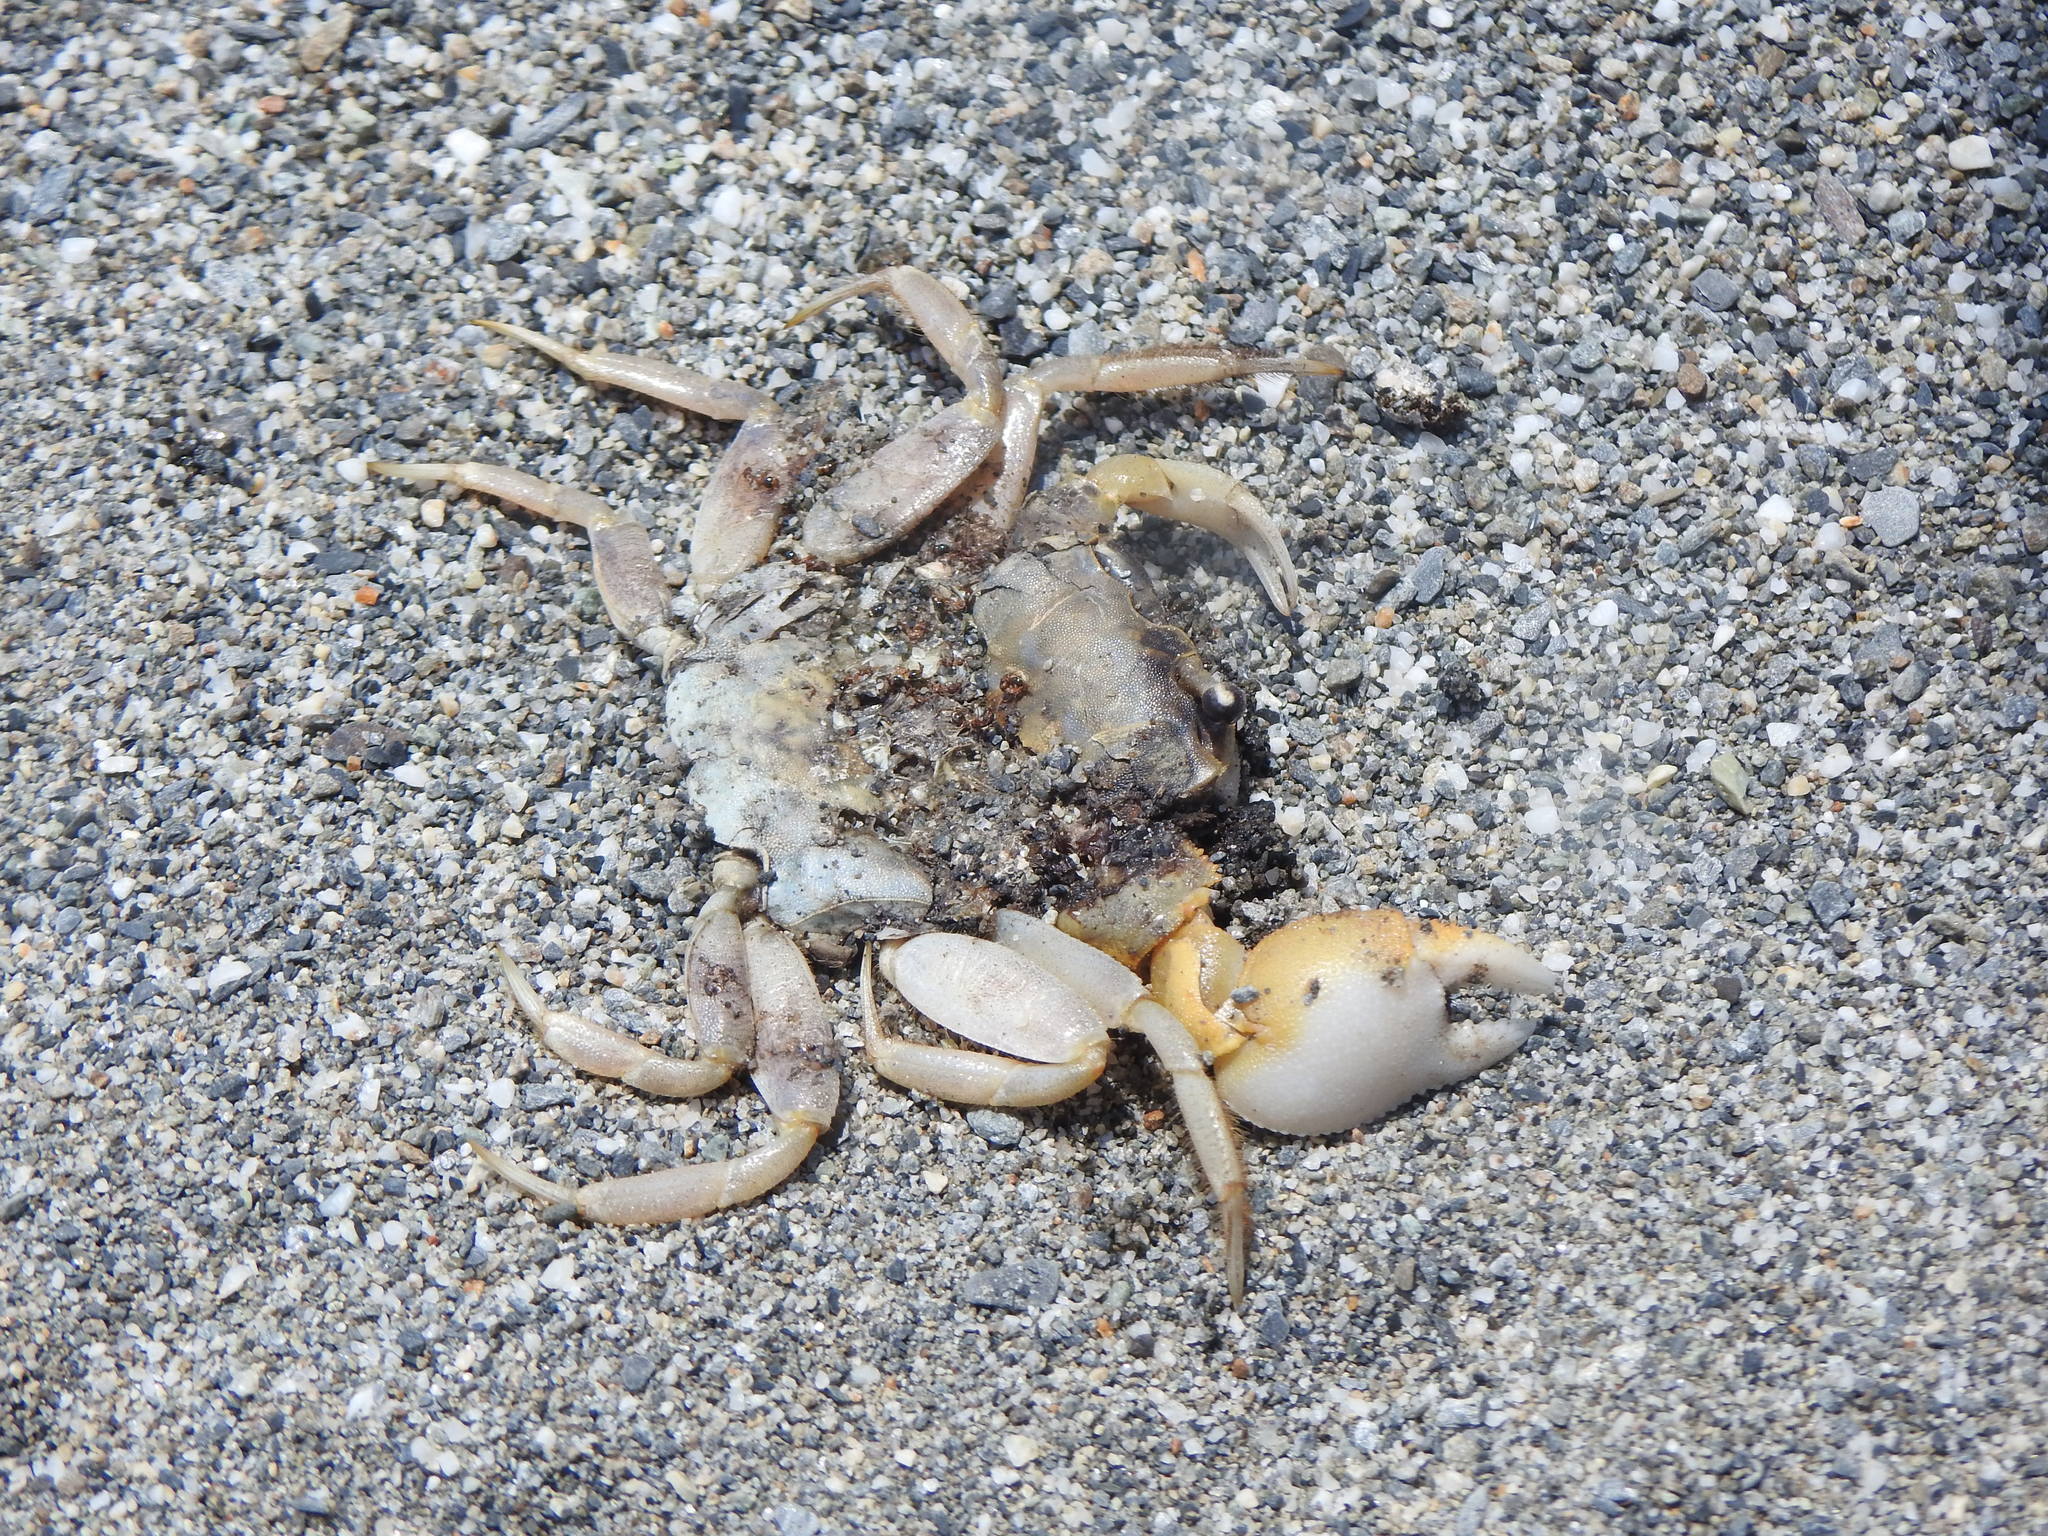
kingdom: Animalia
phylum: Arthropoda
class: Malacostraca
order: Decapoda
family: Ocypodidae
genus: Ocypode
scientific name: Ocypode sinensis
